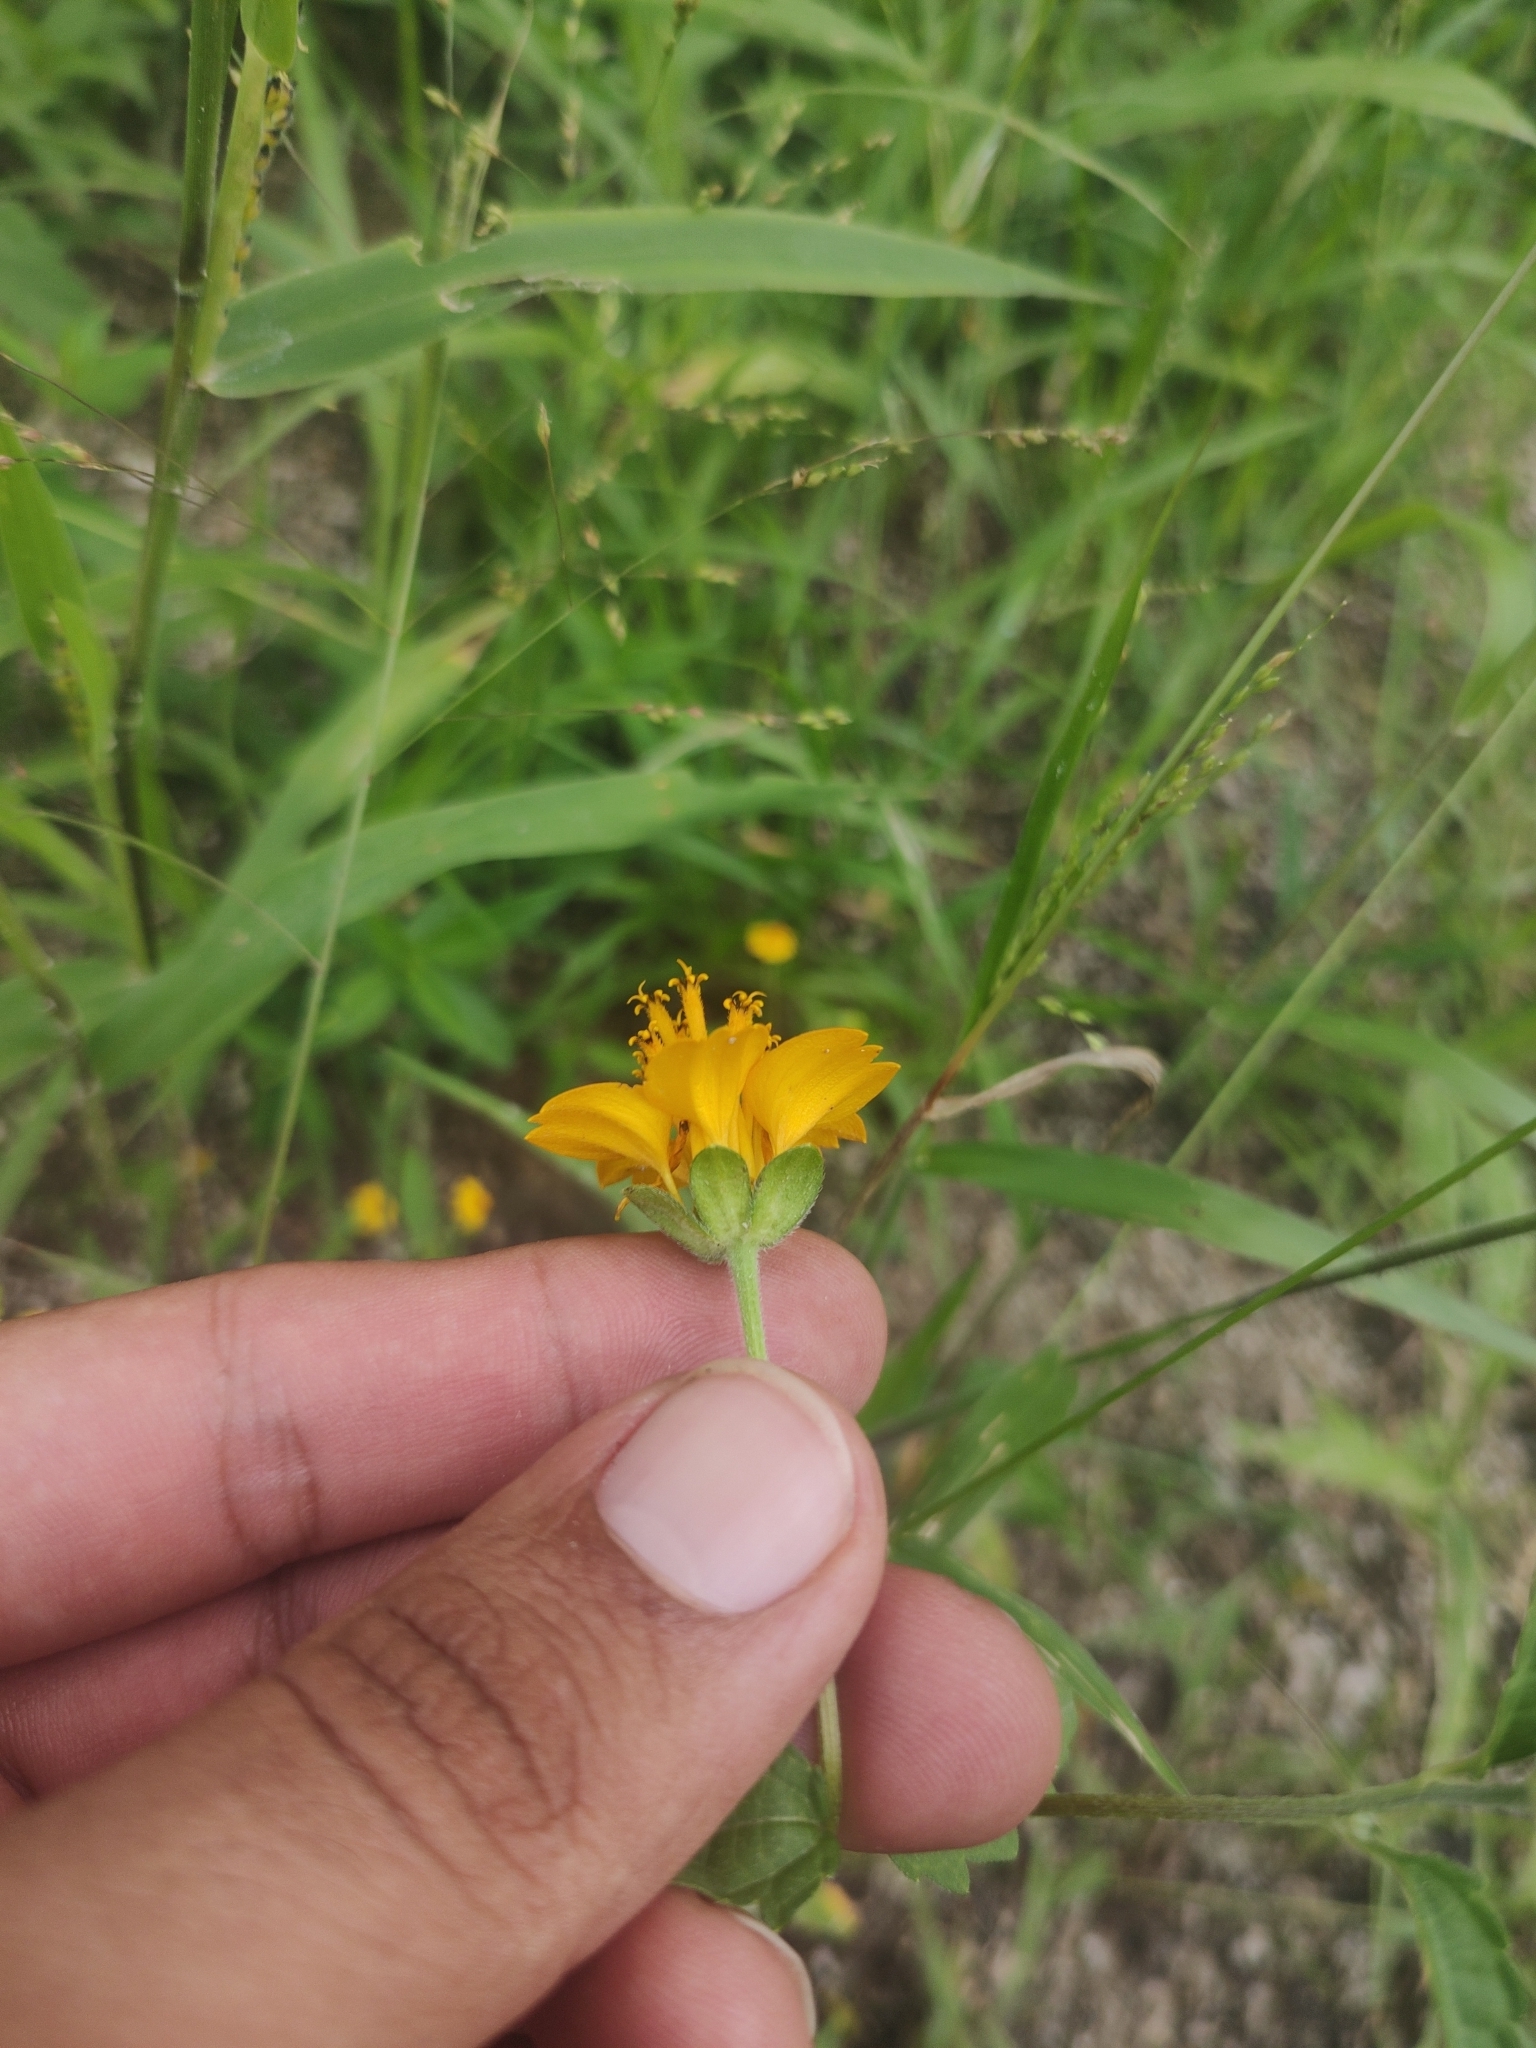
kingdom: Plantae
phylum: Tracheophyta
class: Magnoliopsida
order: Asterales
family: Asteraceae
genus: Sclerocarpus
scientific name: Sclerocarpus divaricatus
